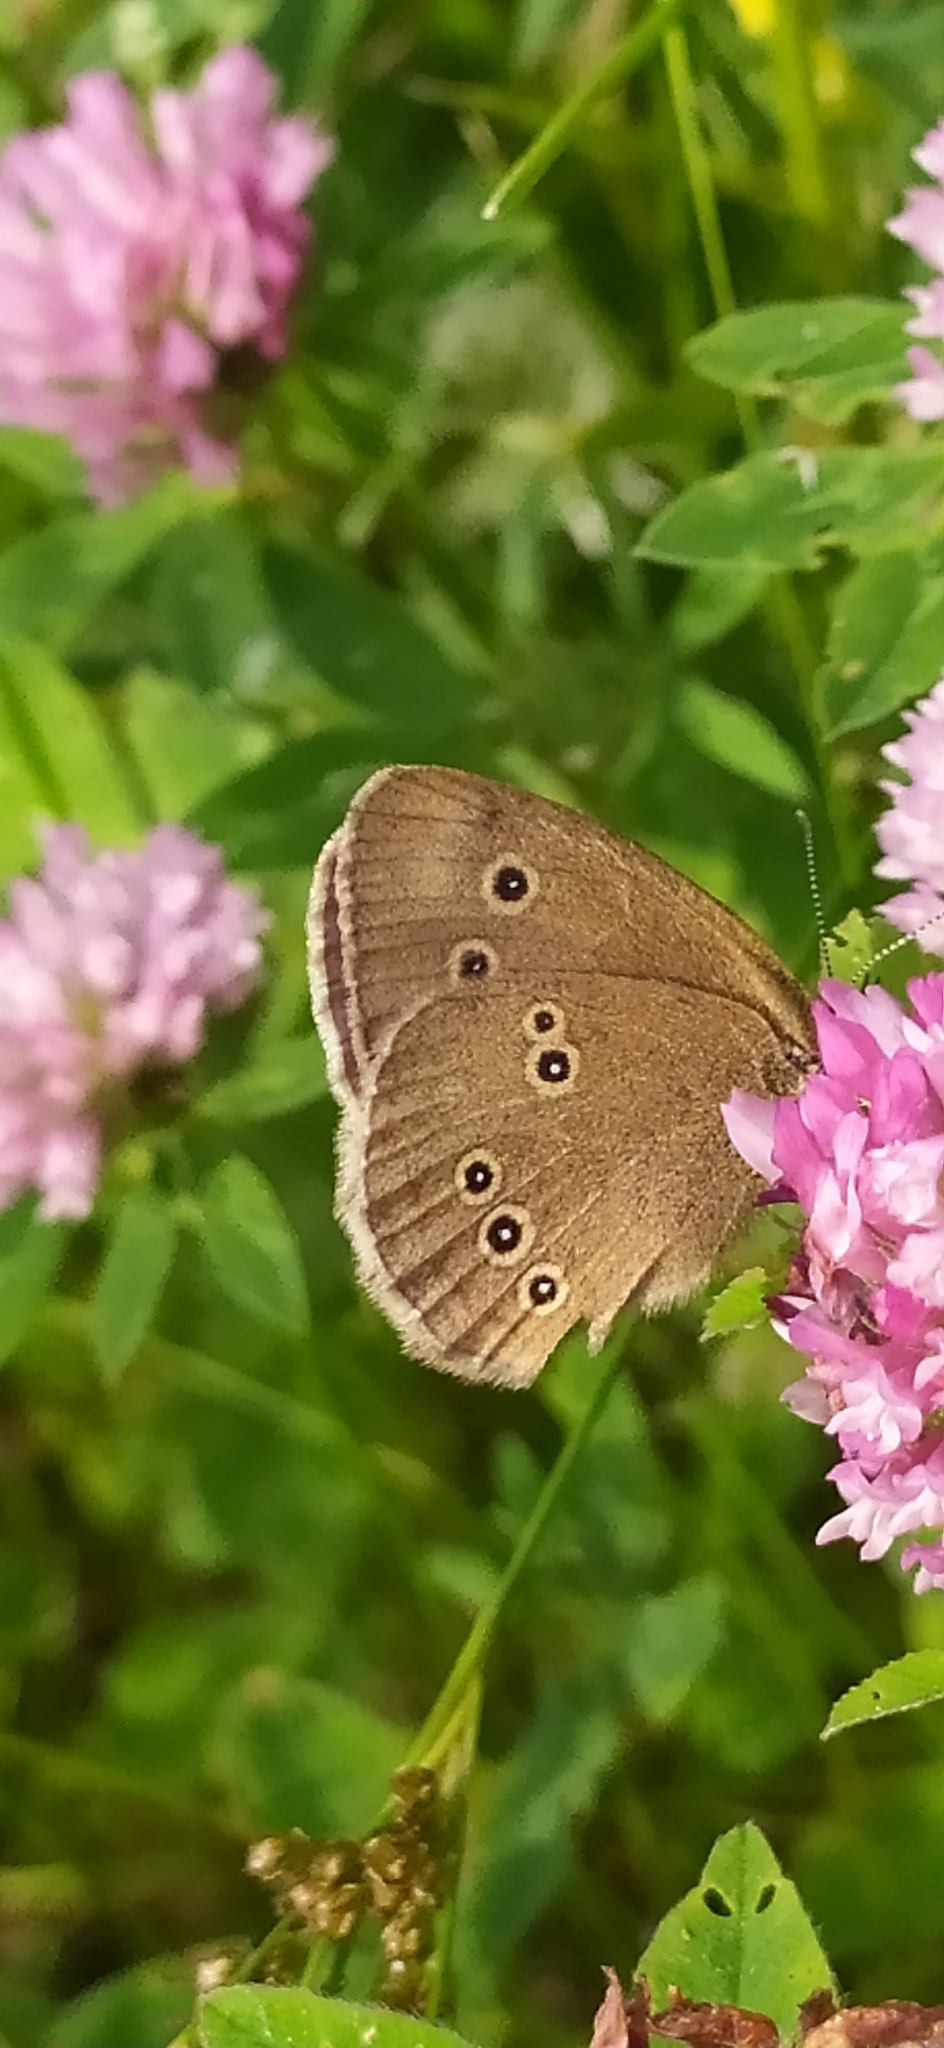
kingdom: Animalia
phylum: Arthropoda
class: Insecta
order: Lepidoptera
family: Nymphalidae
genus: Aphantopus
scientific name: Aphantopus hyperantus
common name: Ringlet
